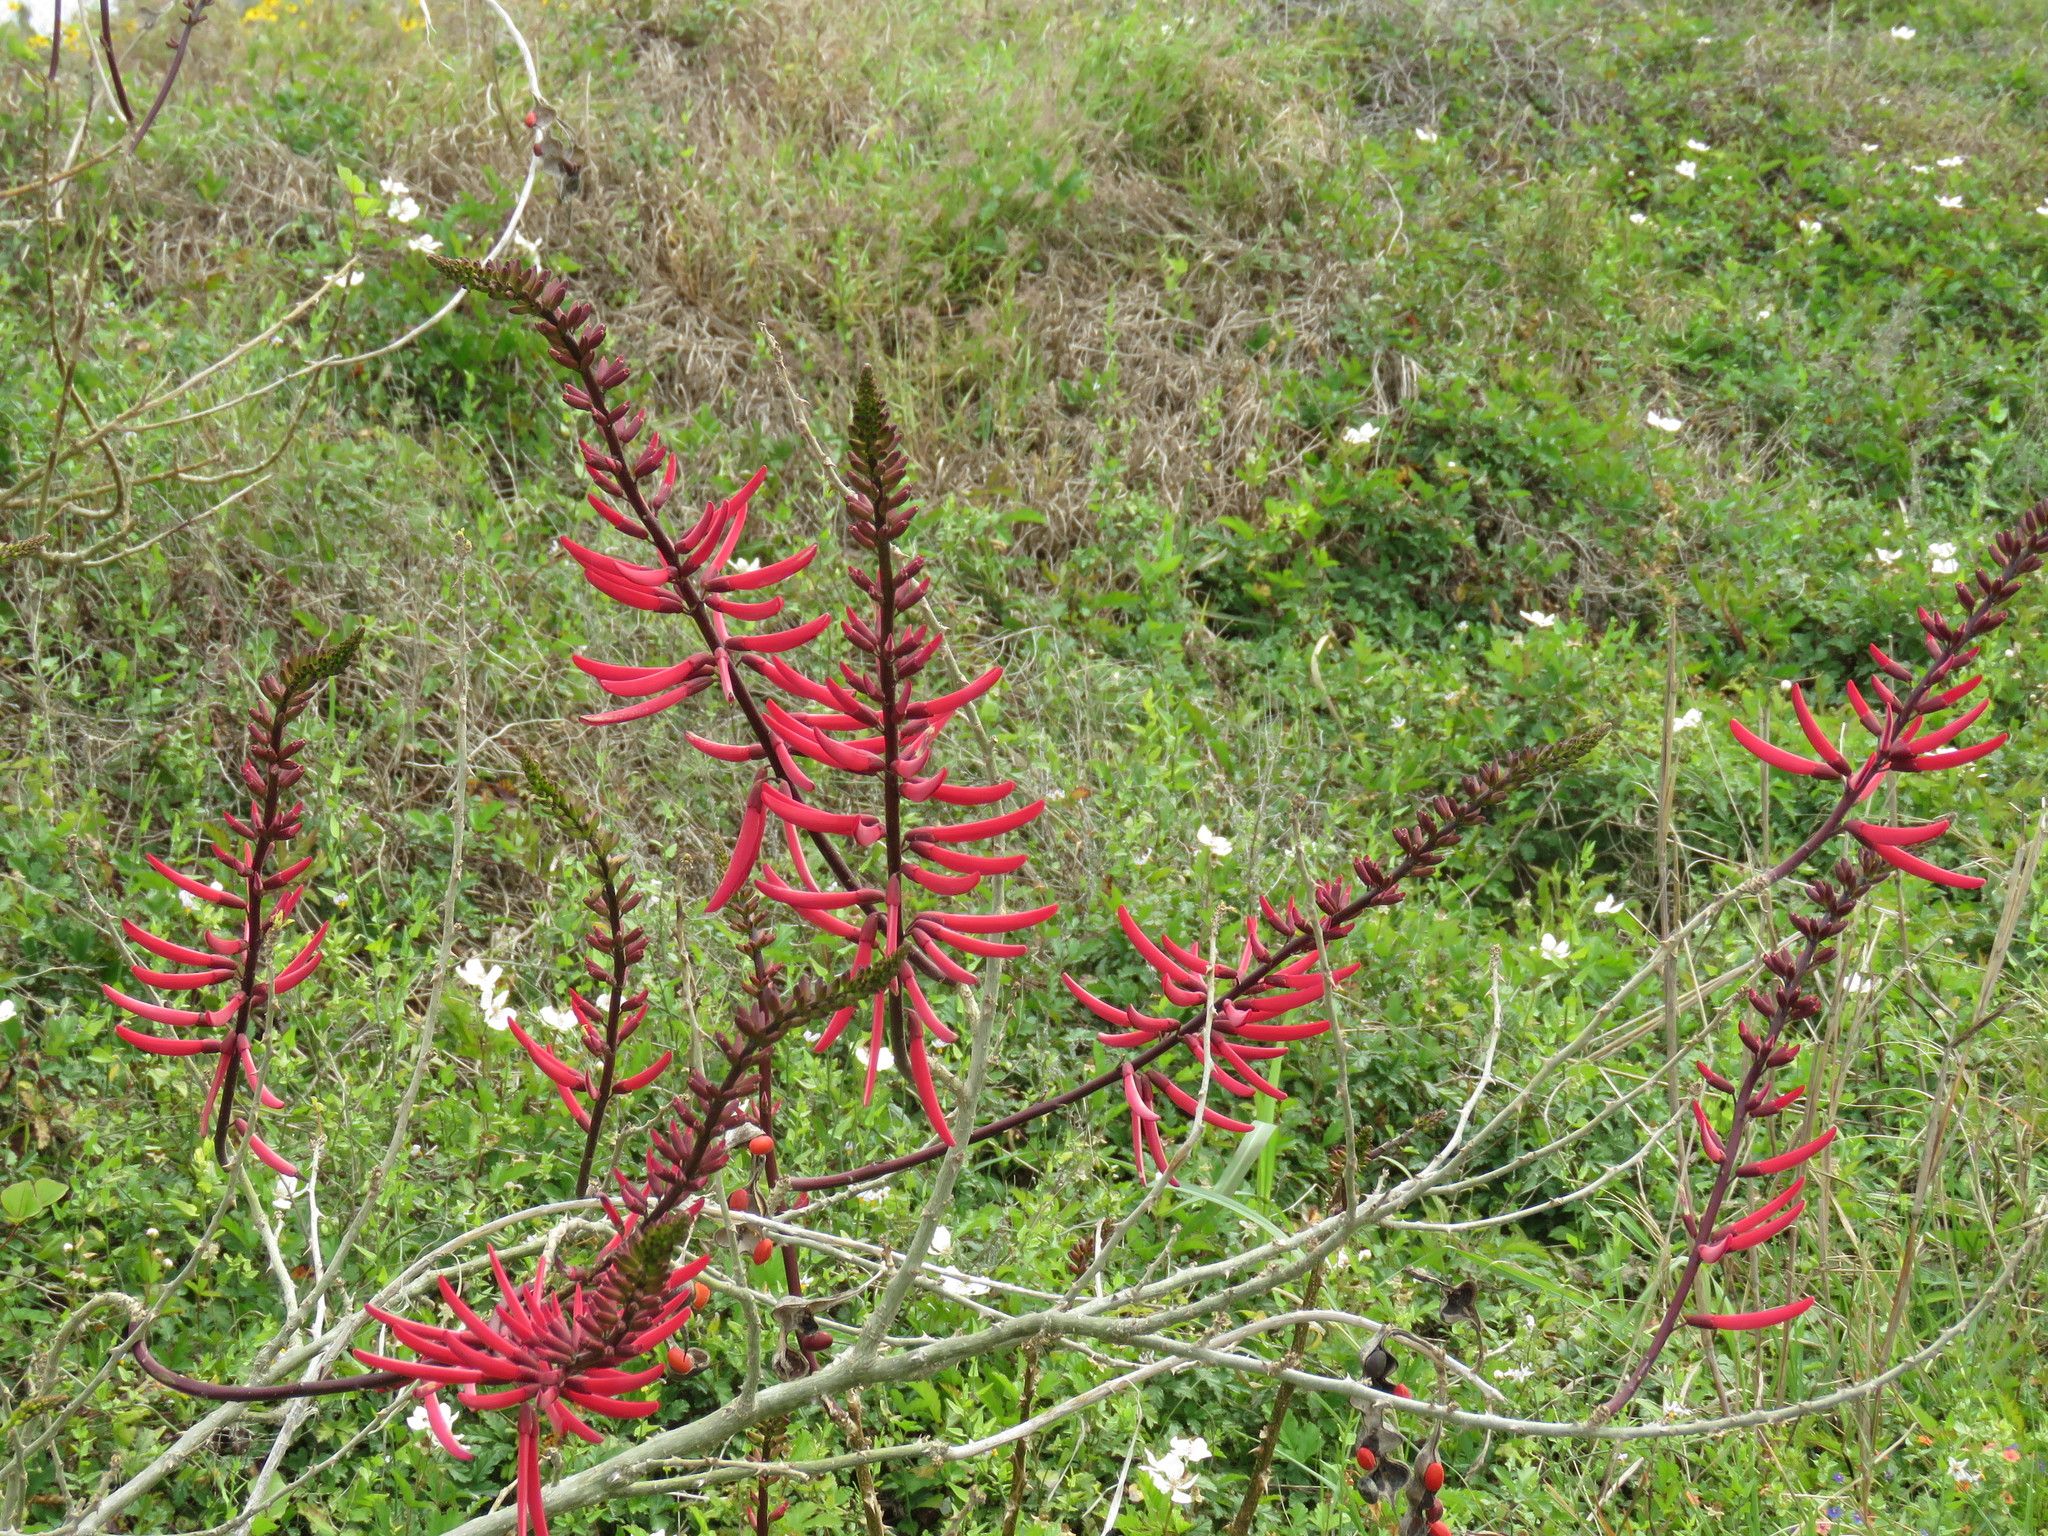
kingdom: Plantae
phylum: Tracheophyta
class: Magnoliopsida
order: Fabales
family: Fabaceae
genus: Erythrina
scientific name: Erythrina herbacea
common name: Coral-bean
